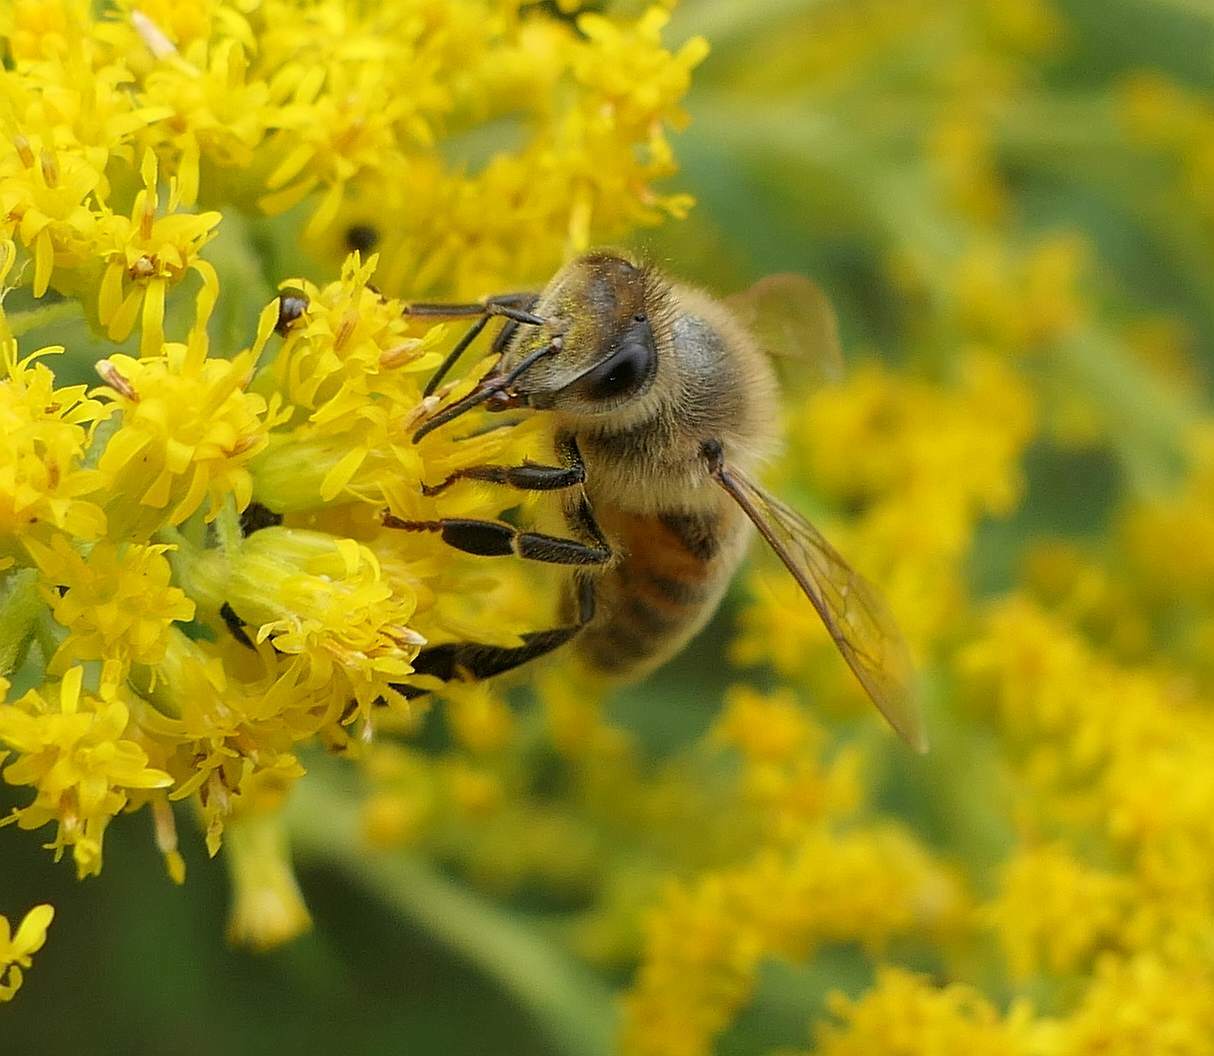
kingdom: Animalia
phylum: Arthropoda
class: Insecta
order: Hymenoptera
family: Apidae
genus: Apis
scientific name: Apis mellifera
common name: Honey bee
